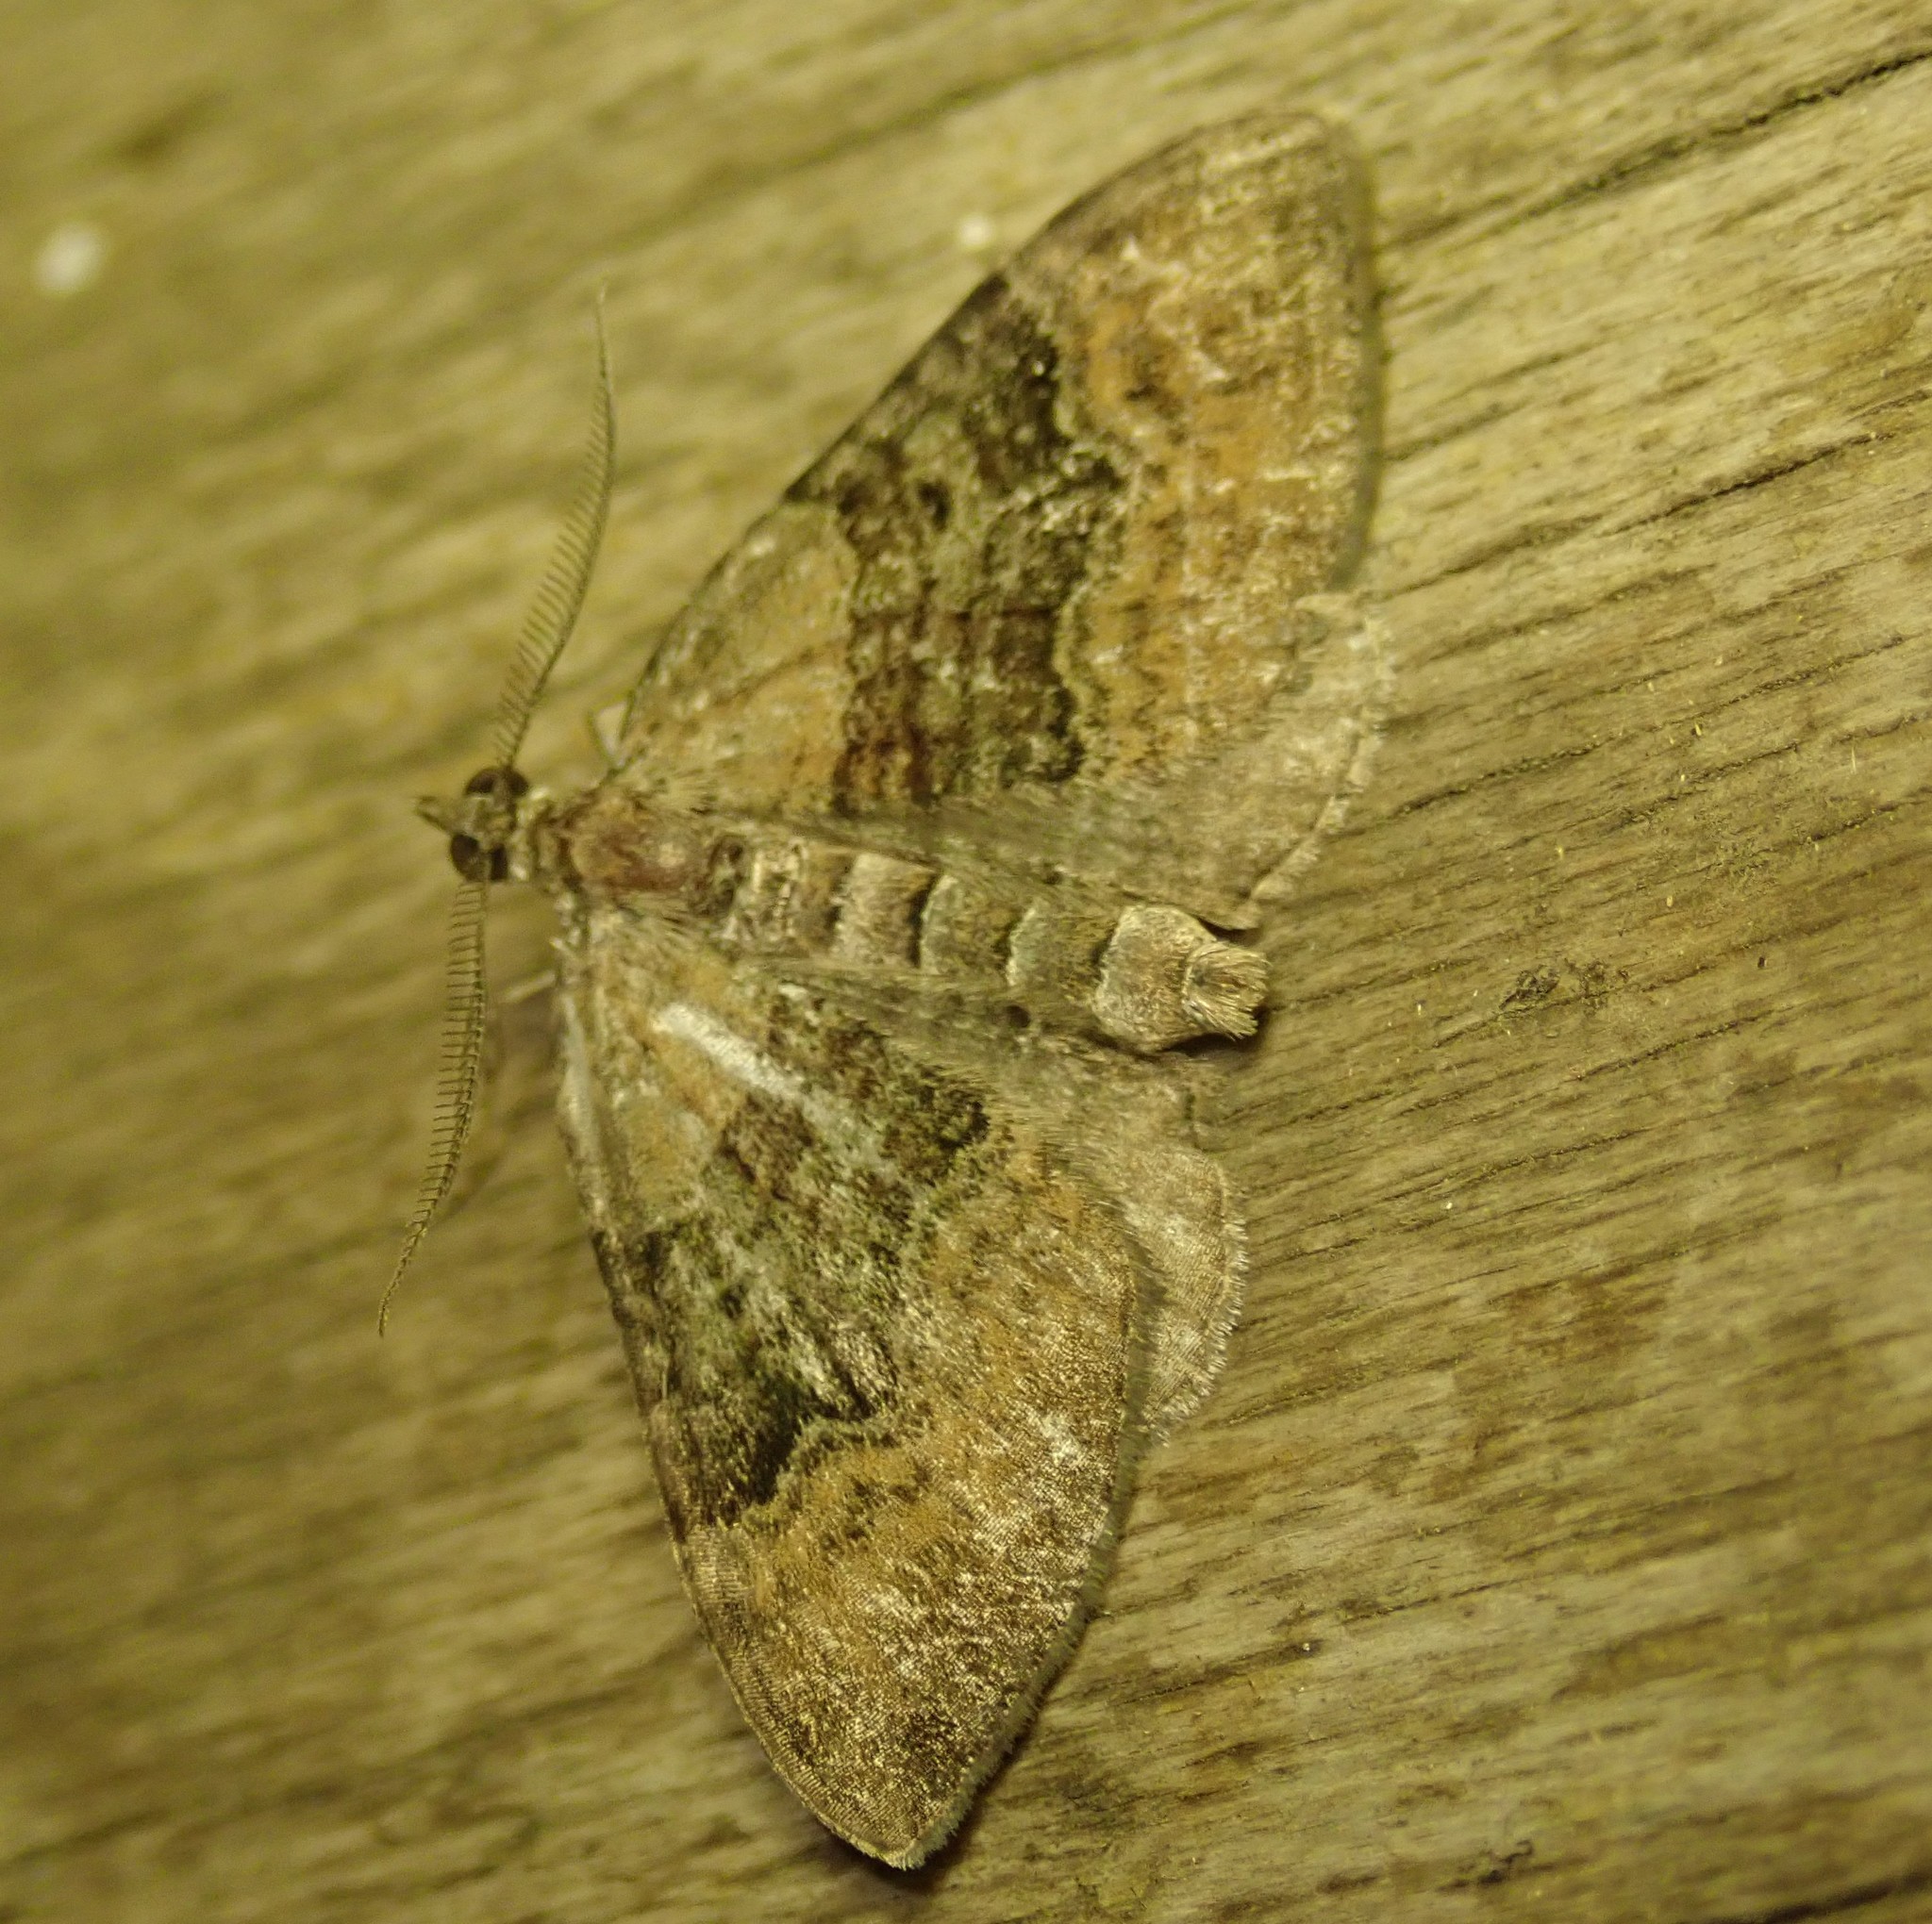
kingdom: Animalia
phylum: Arthropoda
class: Insecta
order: Lepidoptera
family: Geometridae
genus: Xanthorhoe
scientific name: Xanthorhoe quadrifasiata
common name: Large twin-spot carpet
